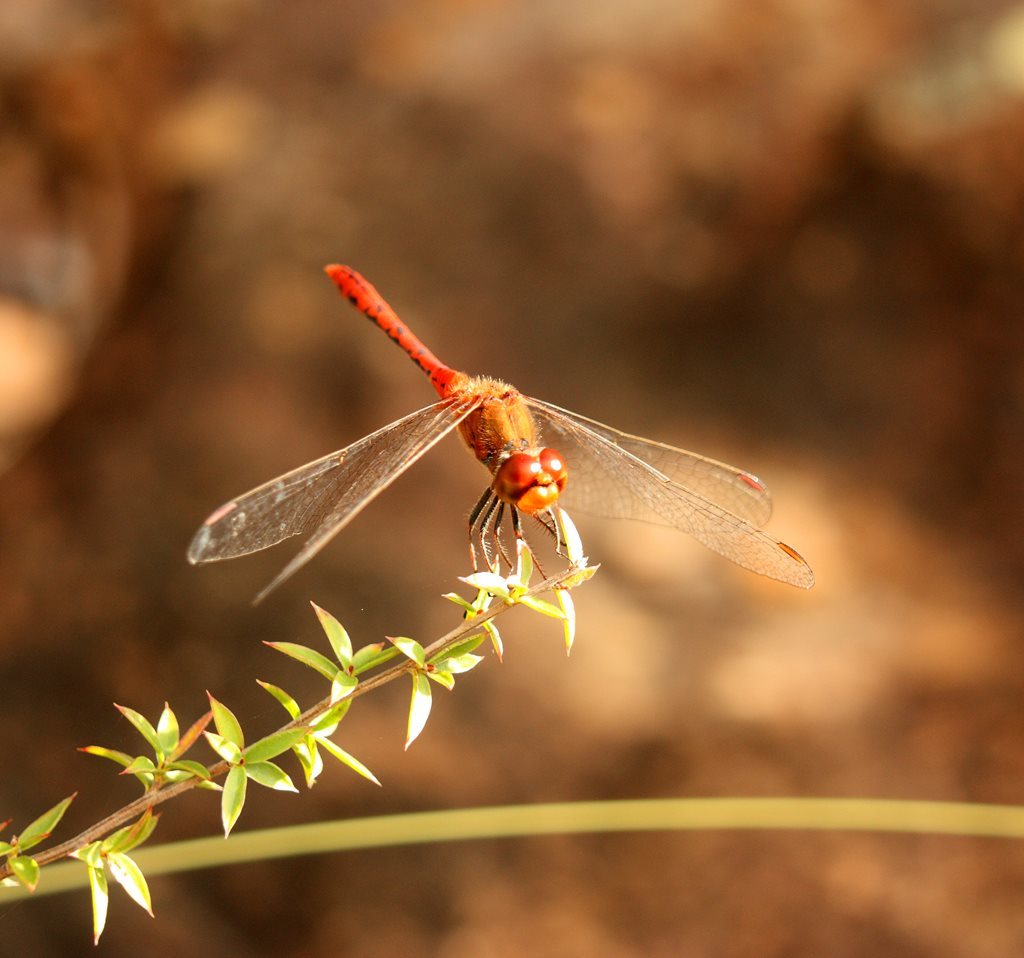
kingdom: Animalia
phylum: Arthropoda
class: Insecta
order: Odonata
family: Libellulidae
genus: Diplacodes
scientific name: Diplacodes bipunctata
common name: Red percher dragonfly
